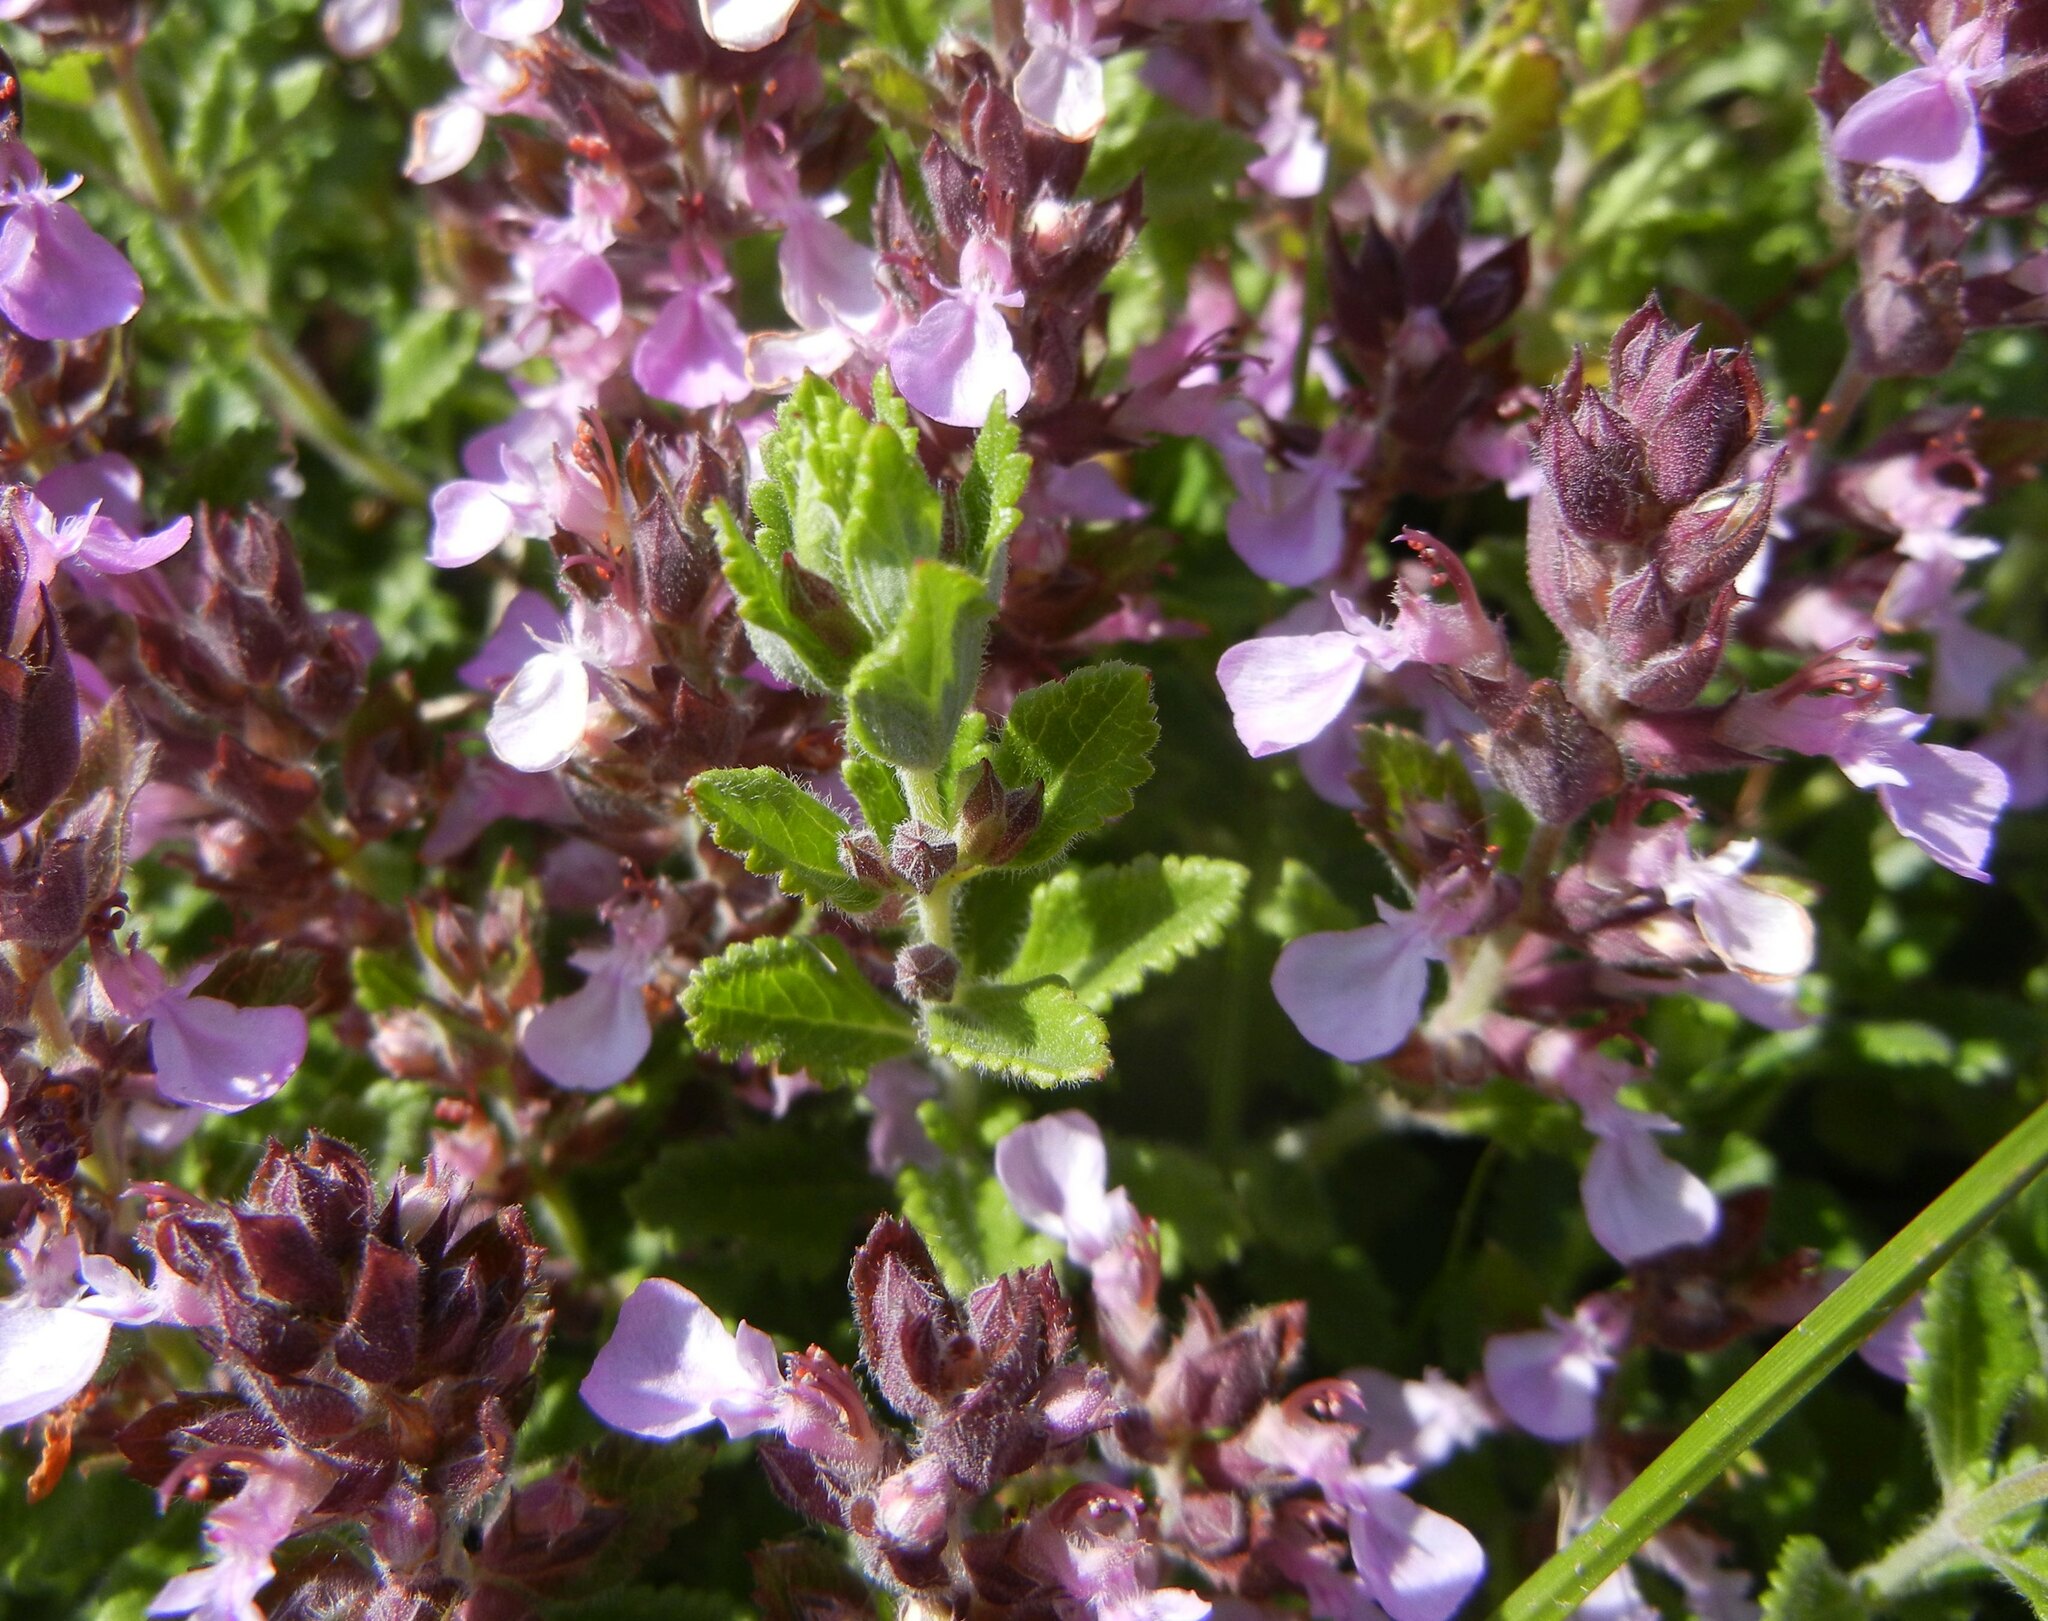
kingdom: Plantae
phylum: Tracheophyta
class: Magnoliopsida
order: Lamiales
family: Lamiaceae
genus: Teucrium
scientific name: Teucrium chamaedrys
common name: Wall germander
